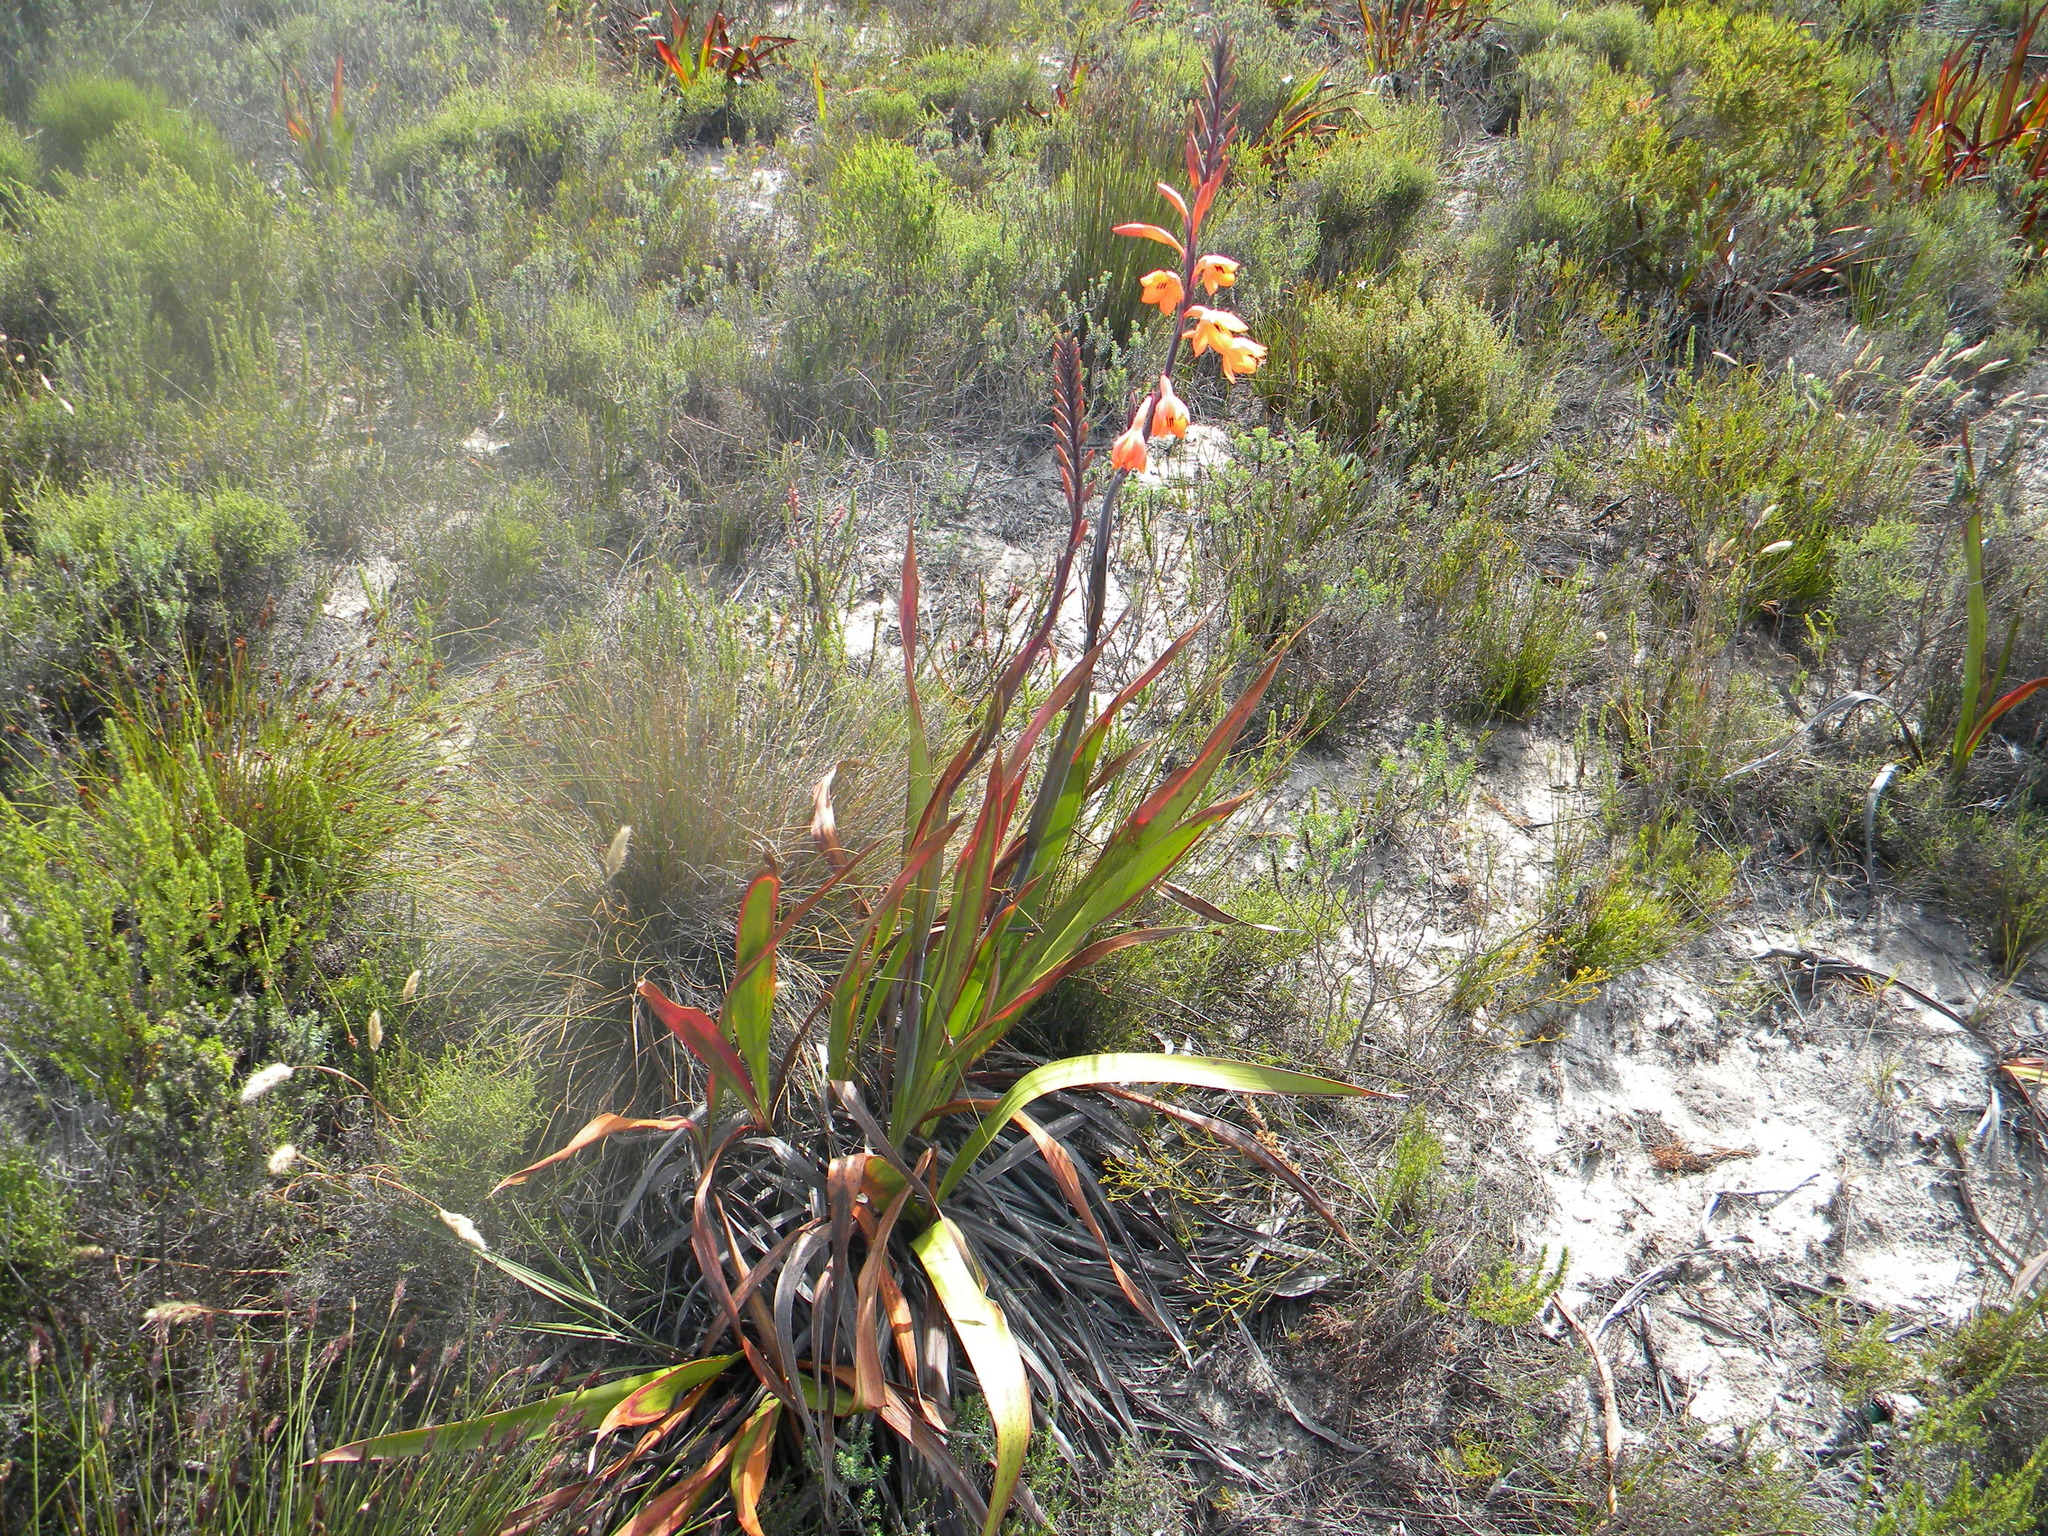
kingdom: Plantae
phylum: Tracheophyta
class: Liliopsida
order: Asparagales
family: Iridaceae
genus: Watsonia
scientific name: Watsonia tabularis
